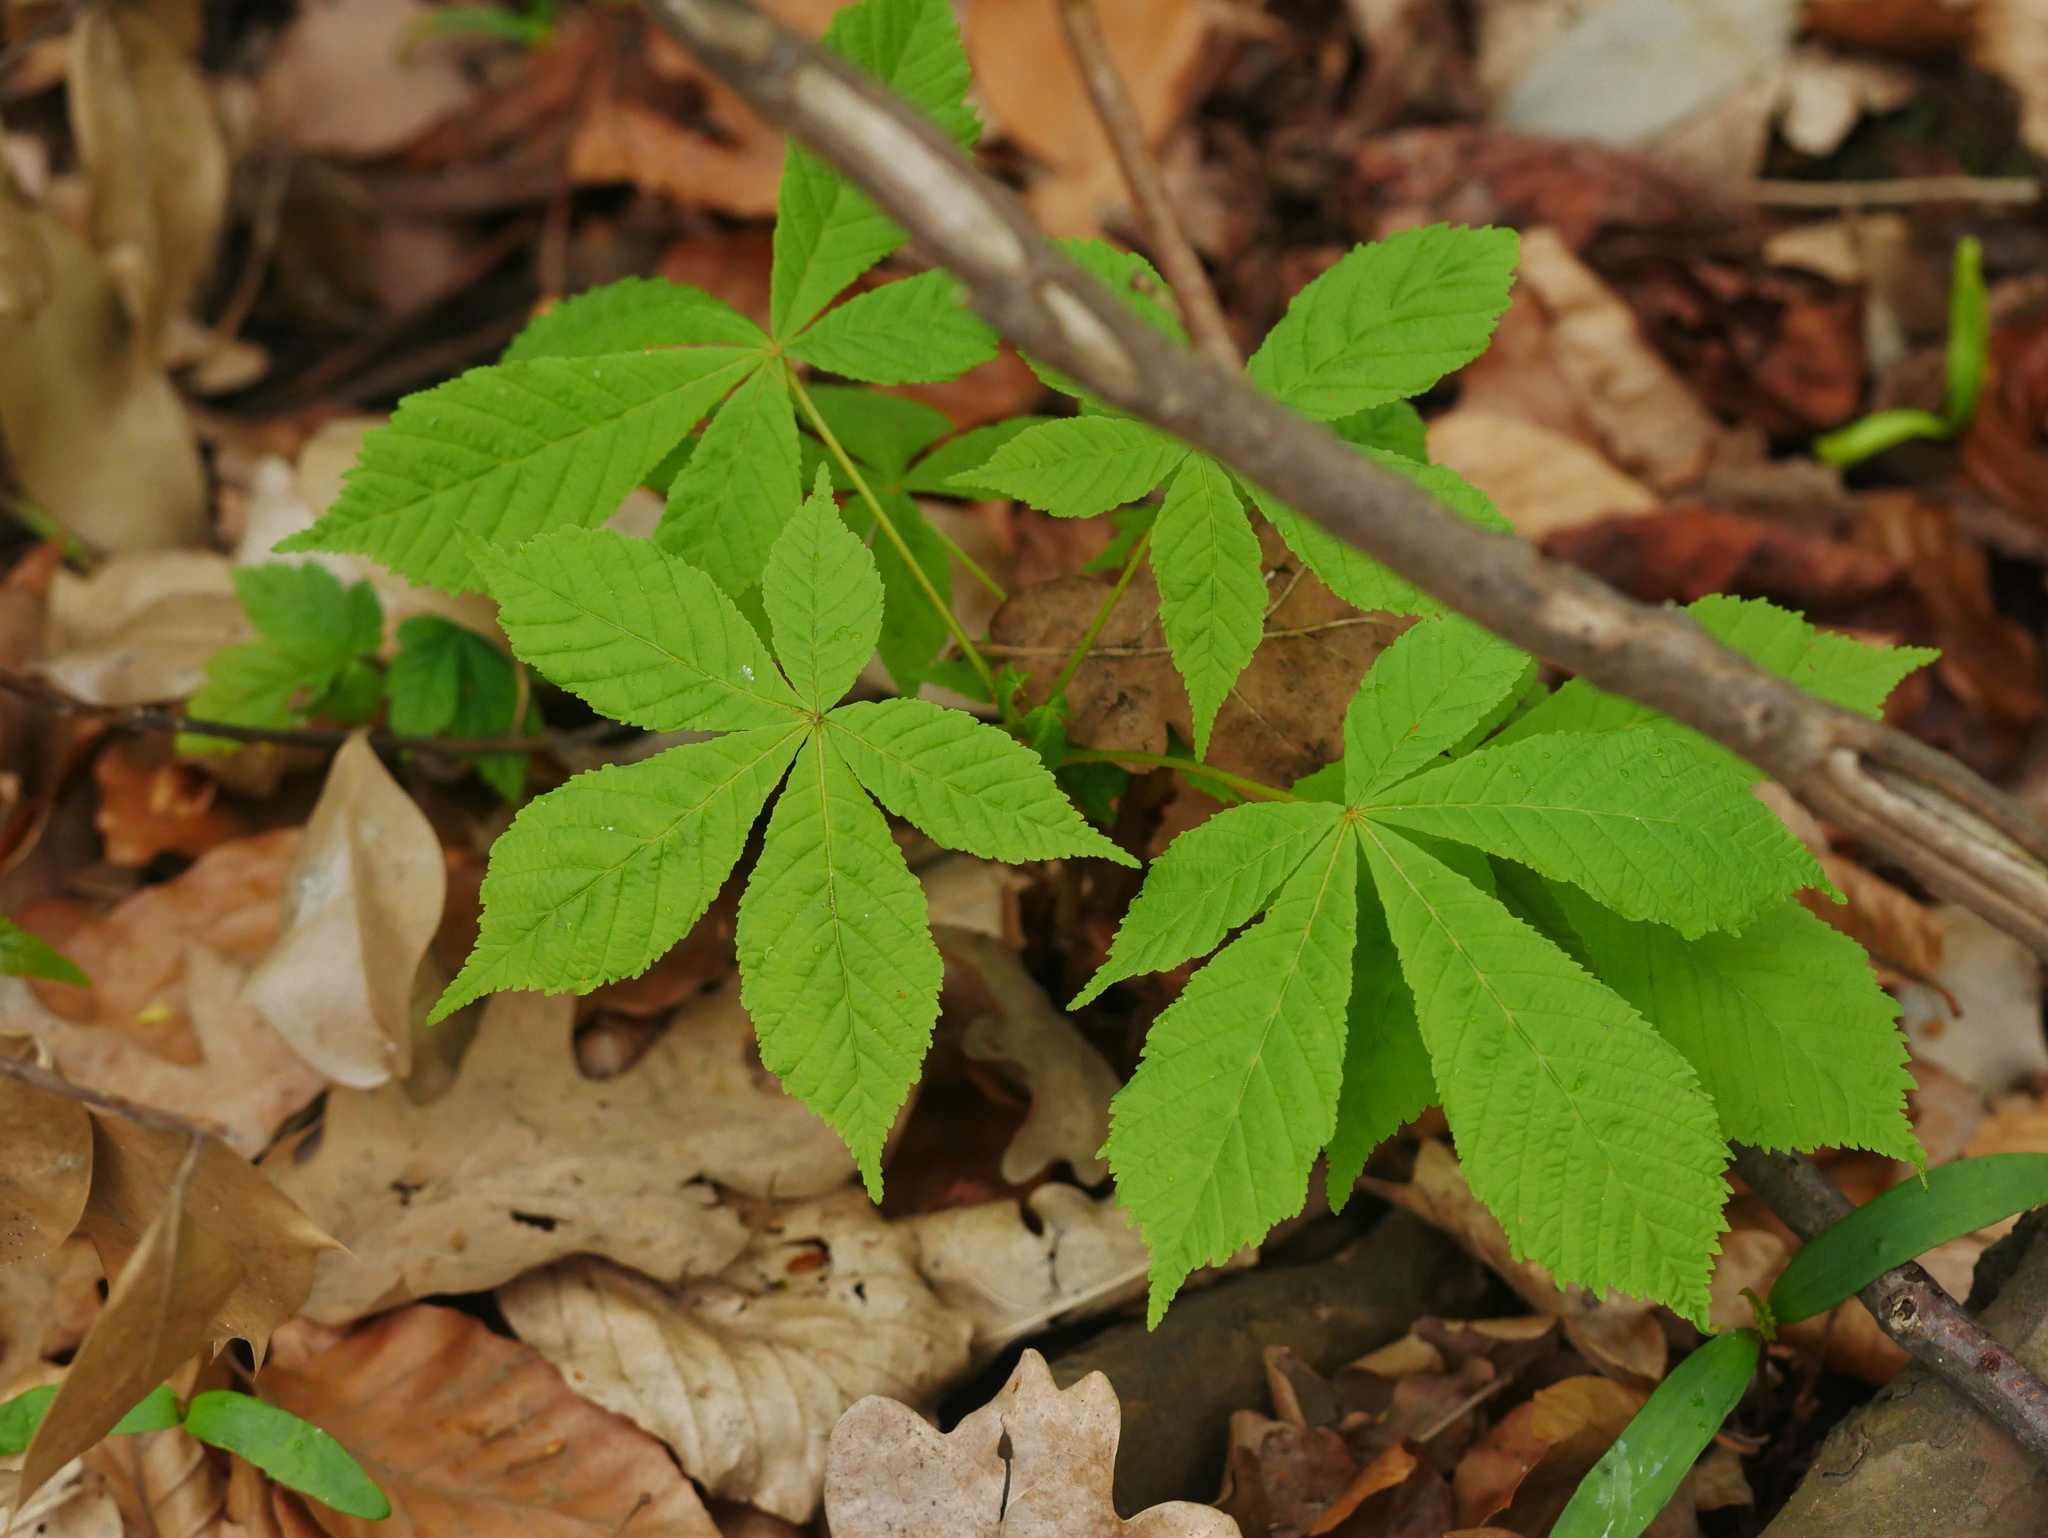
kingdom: Plantae
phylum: Tracheophyta
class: Magnoliopsida
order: Sapindales
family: Sapindaceae
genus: Aesculus
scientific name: Aesculus hippocastanum
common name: Horse-chestnut
